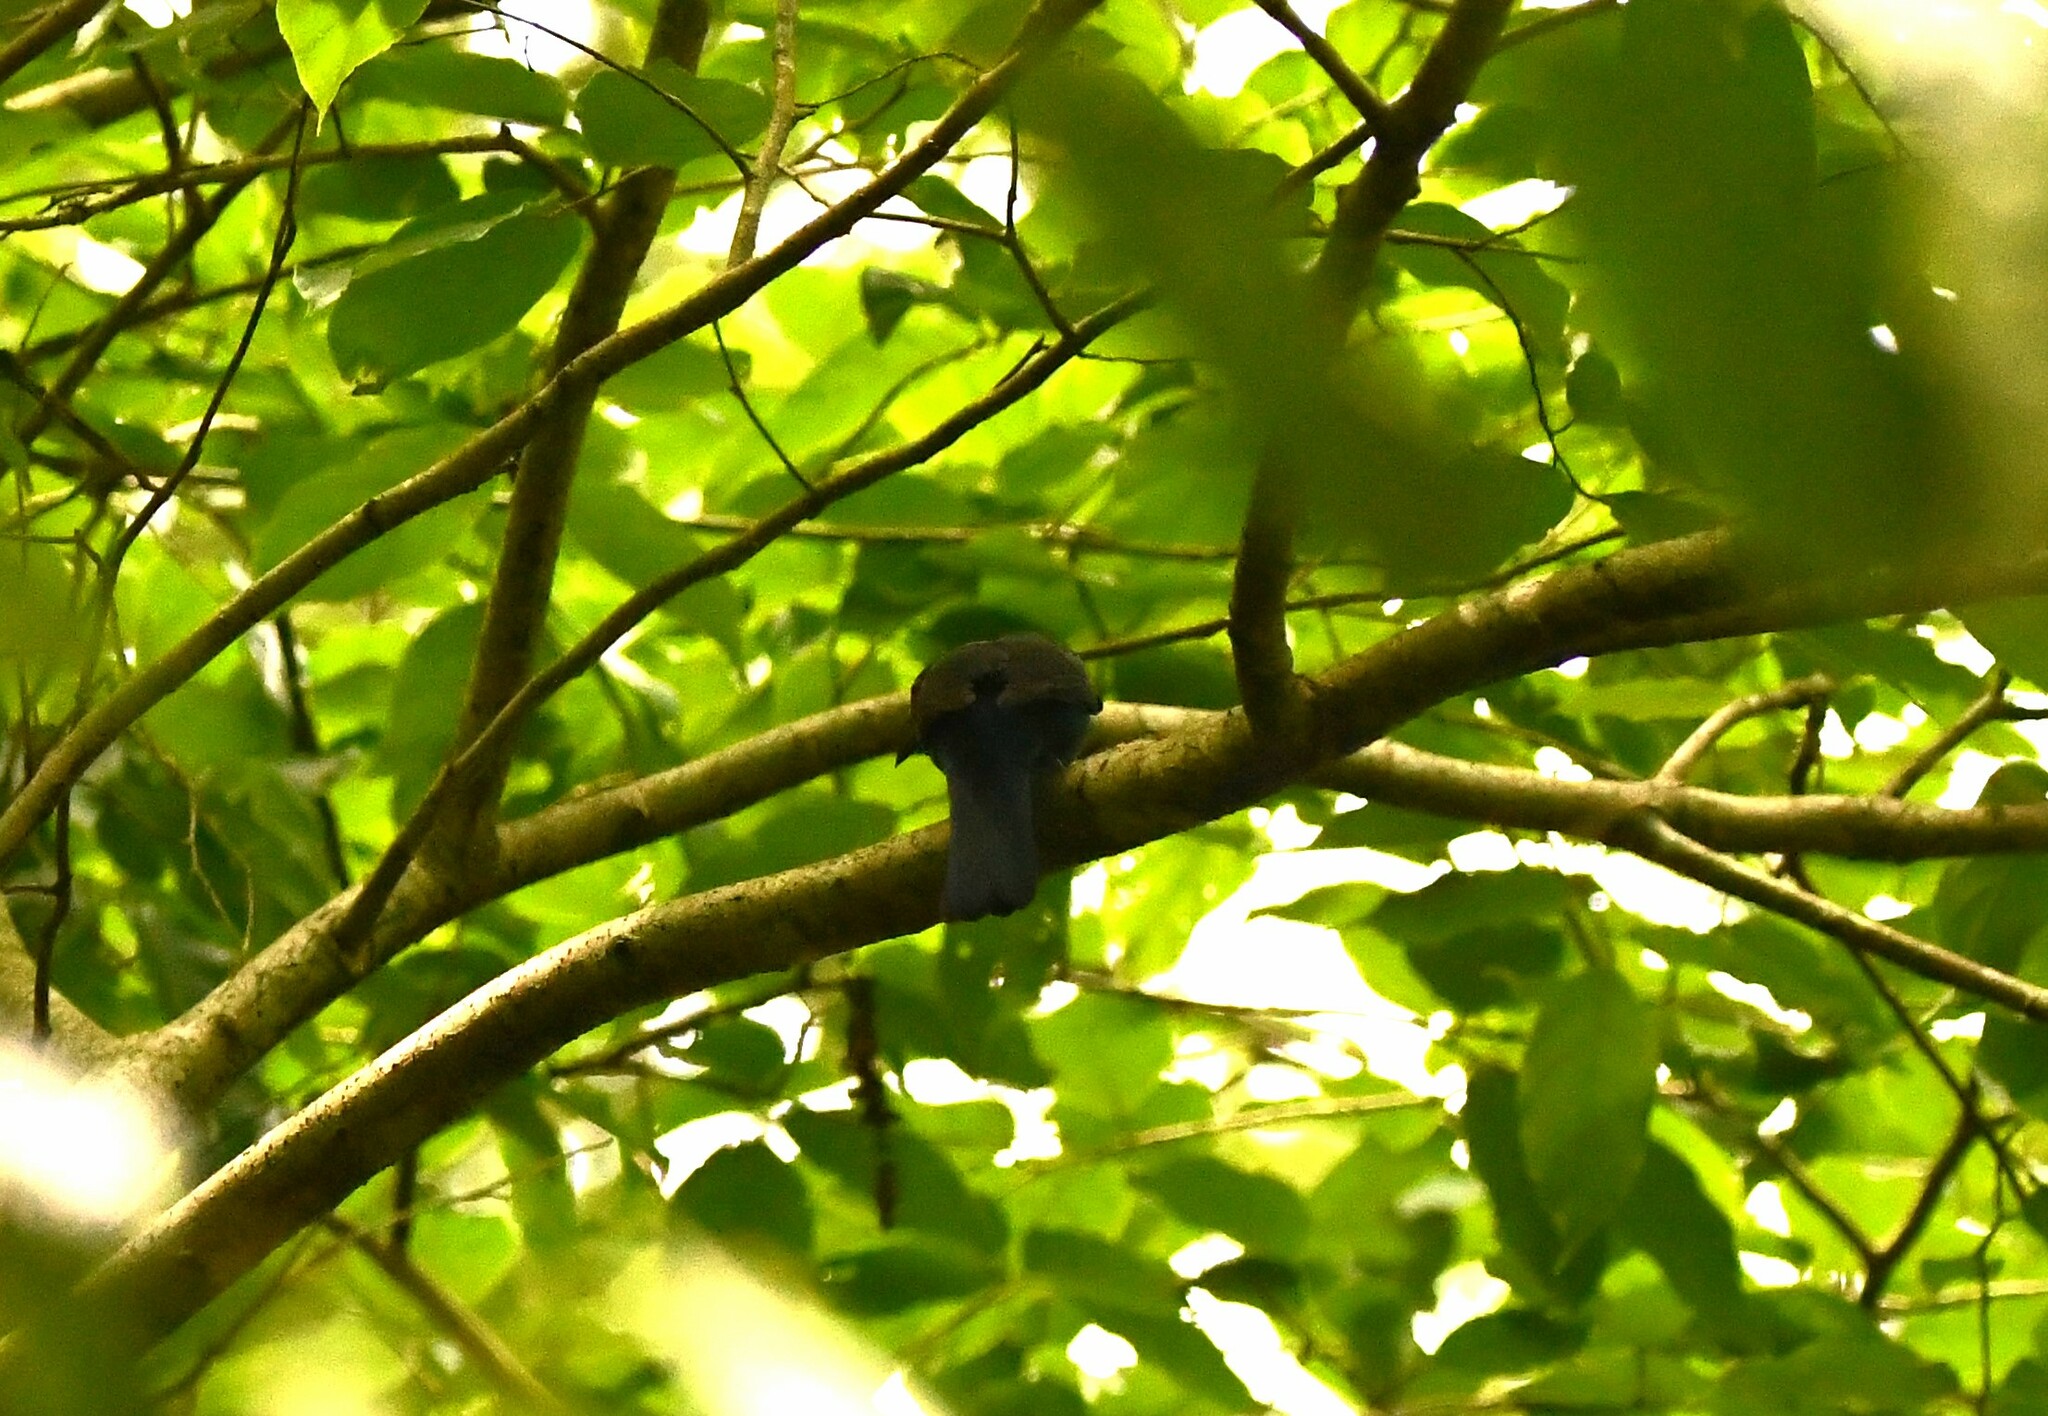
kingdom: Animalia
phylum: Chordata
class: Aves
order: Passeriformes
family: Irenidae
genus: Irena
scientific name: Irena puella
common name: Asian fairy-bluebird
